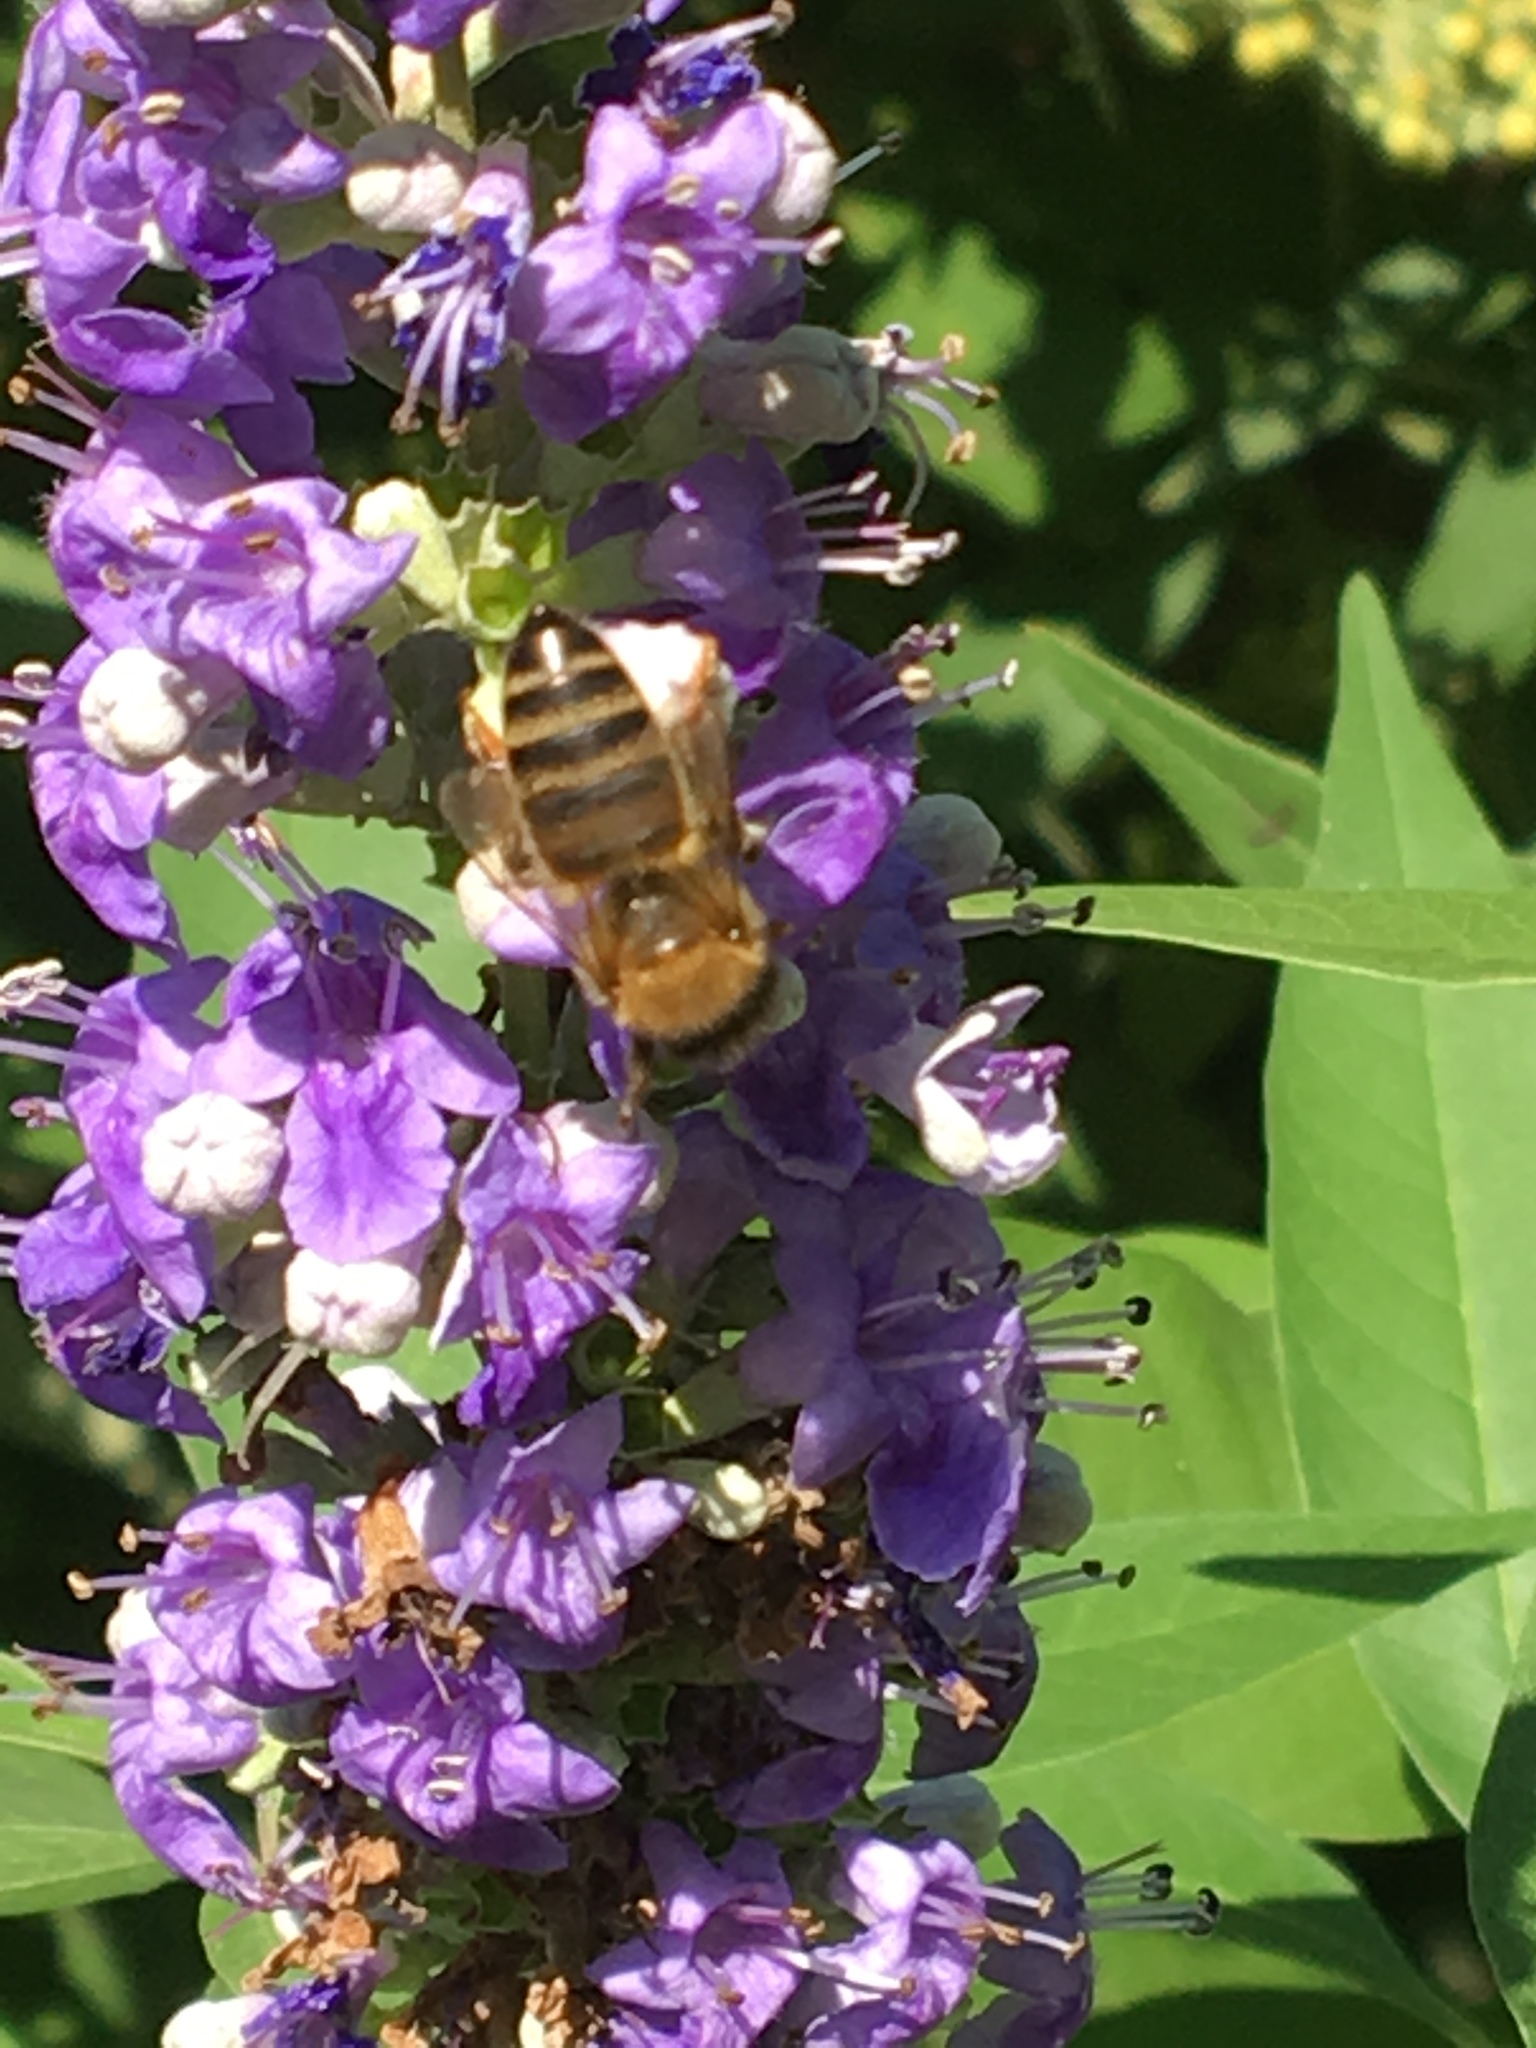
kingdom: Animalia
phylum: Arthropoda
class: Insecta
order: Hymenoptera
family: Apidae
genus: Apis
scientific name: Apis mellifera
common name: Honey bee
